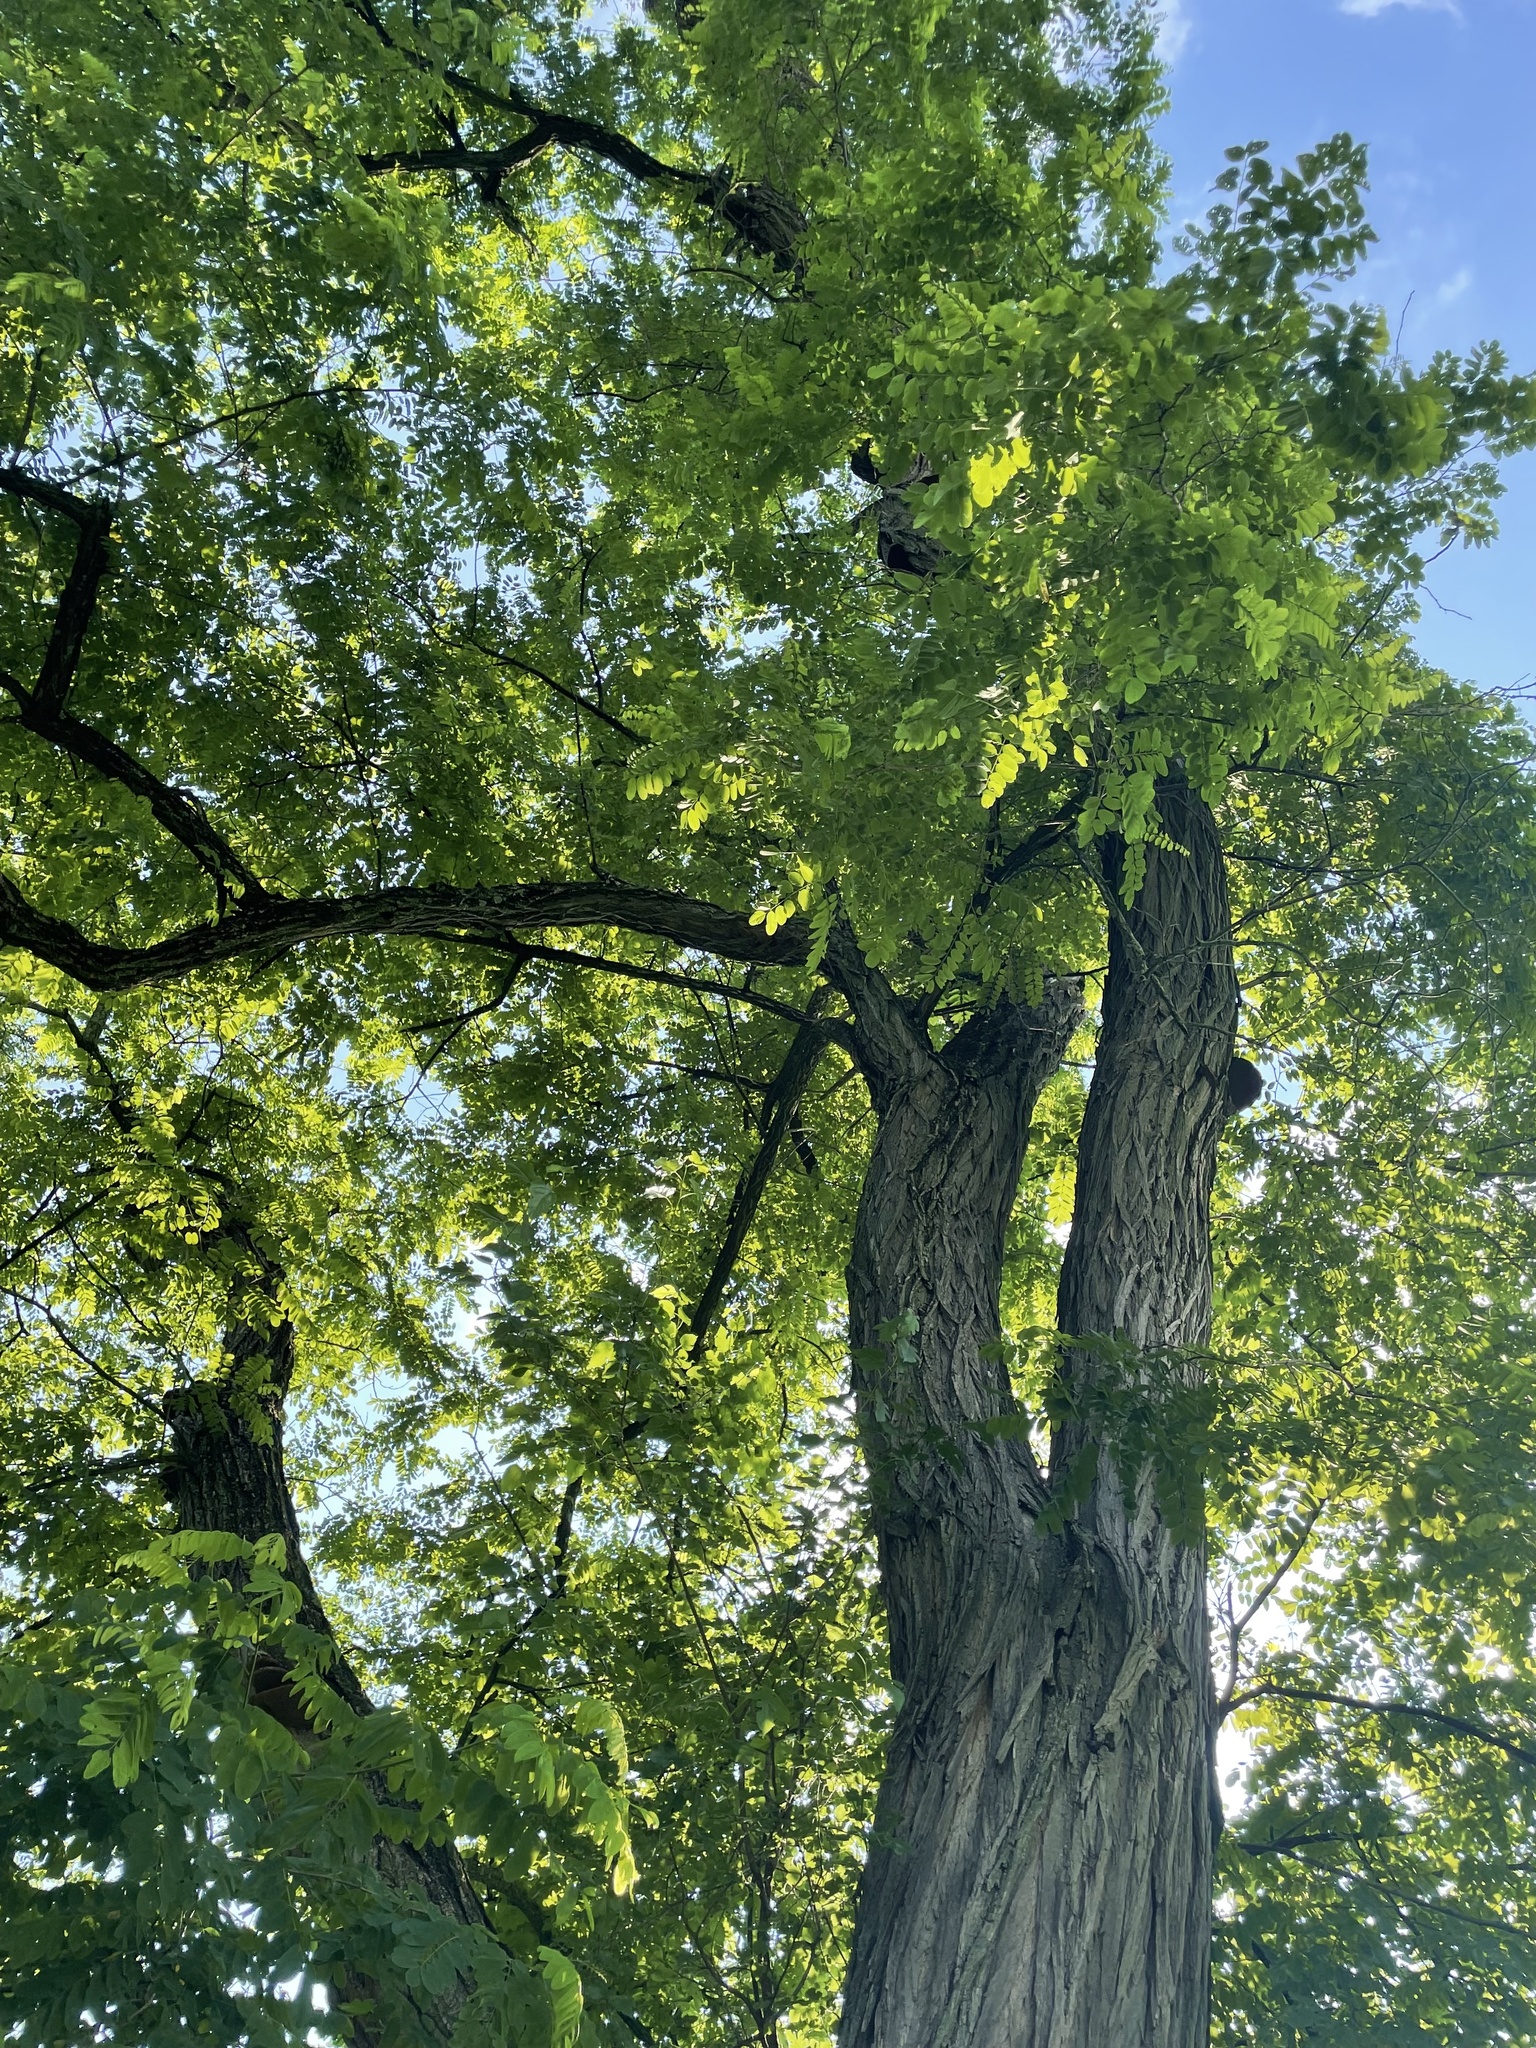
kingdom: Plantae
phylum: Tracheophyta
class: Magnoliopsida
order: Fabales
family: Fabaceae
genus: Robinia
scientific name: Robinia pseudoacacia
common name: Black locust
